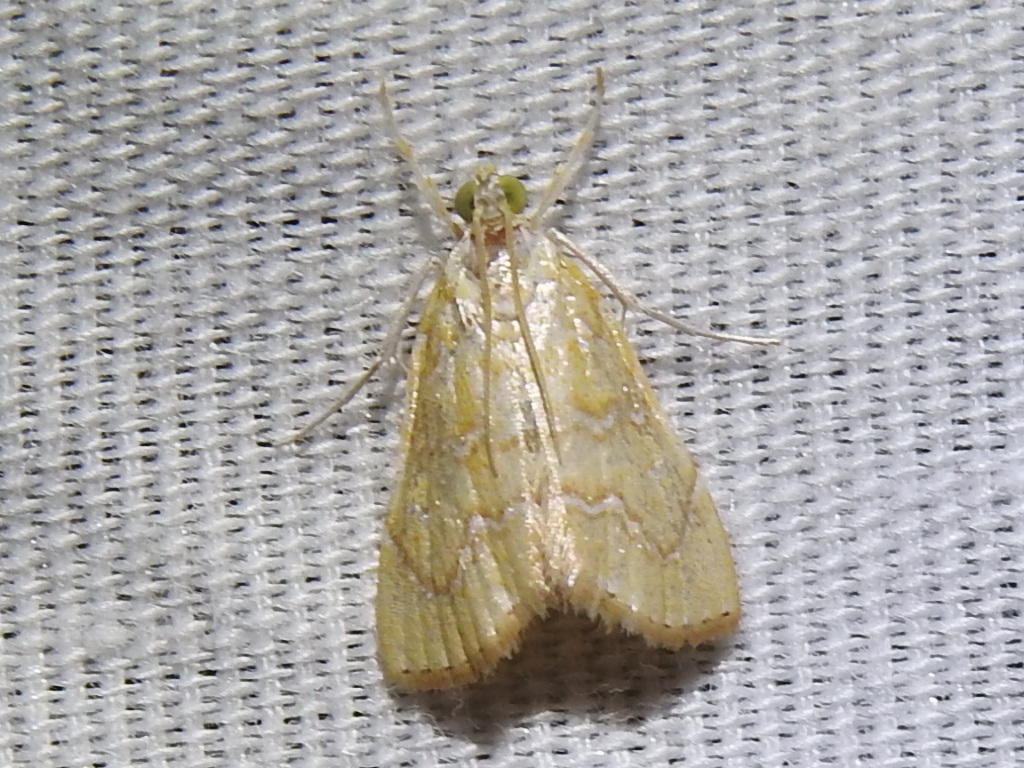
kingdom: Animalia
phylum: Arthropoda
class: Insecta
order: Lepidoptera
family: Crambidae
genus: Glaphyria
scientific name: Glaphyria sesquistrialis
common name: White-roped glaphyria
